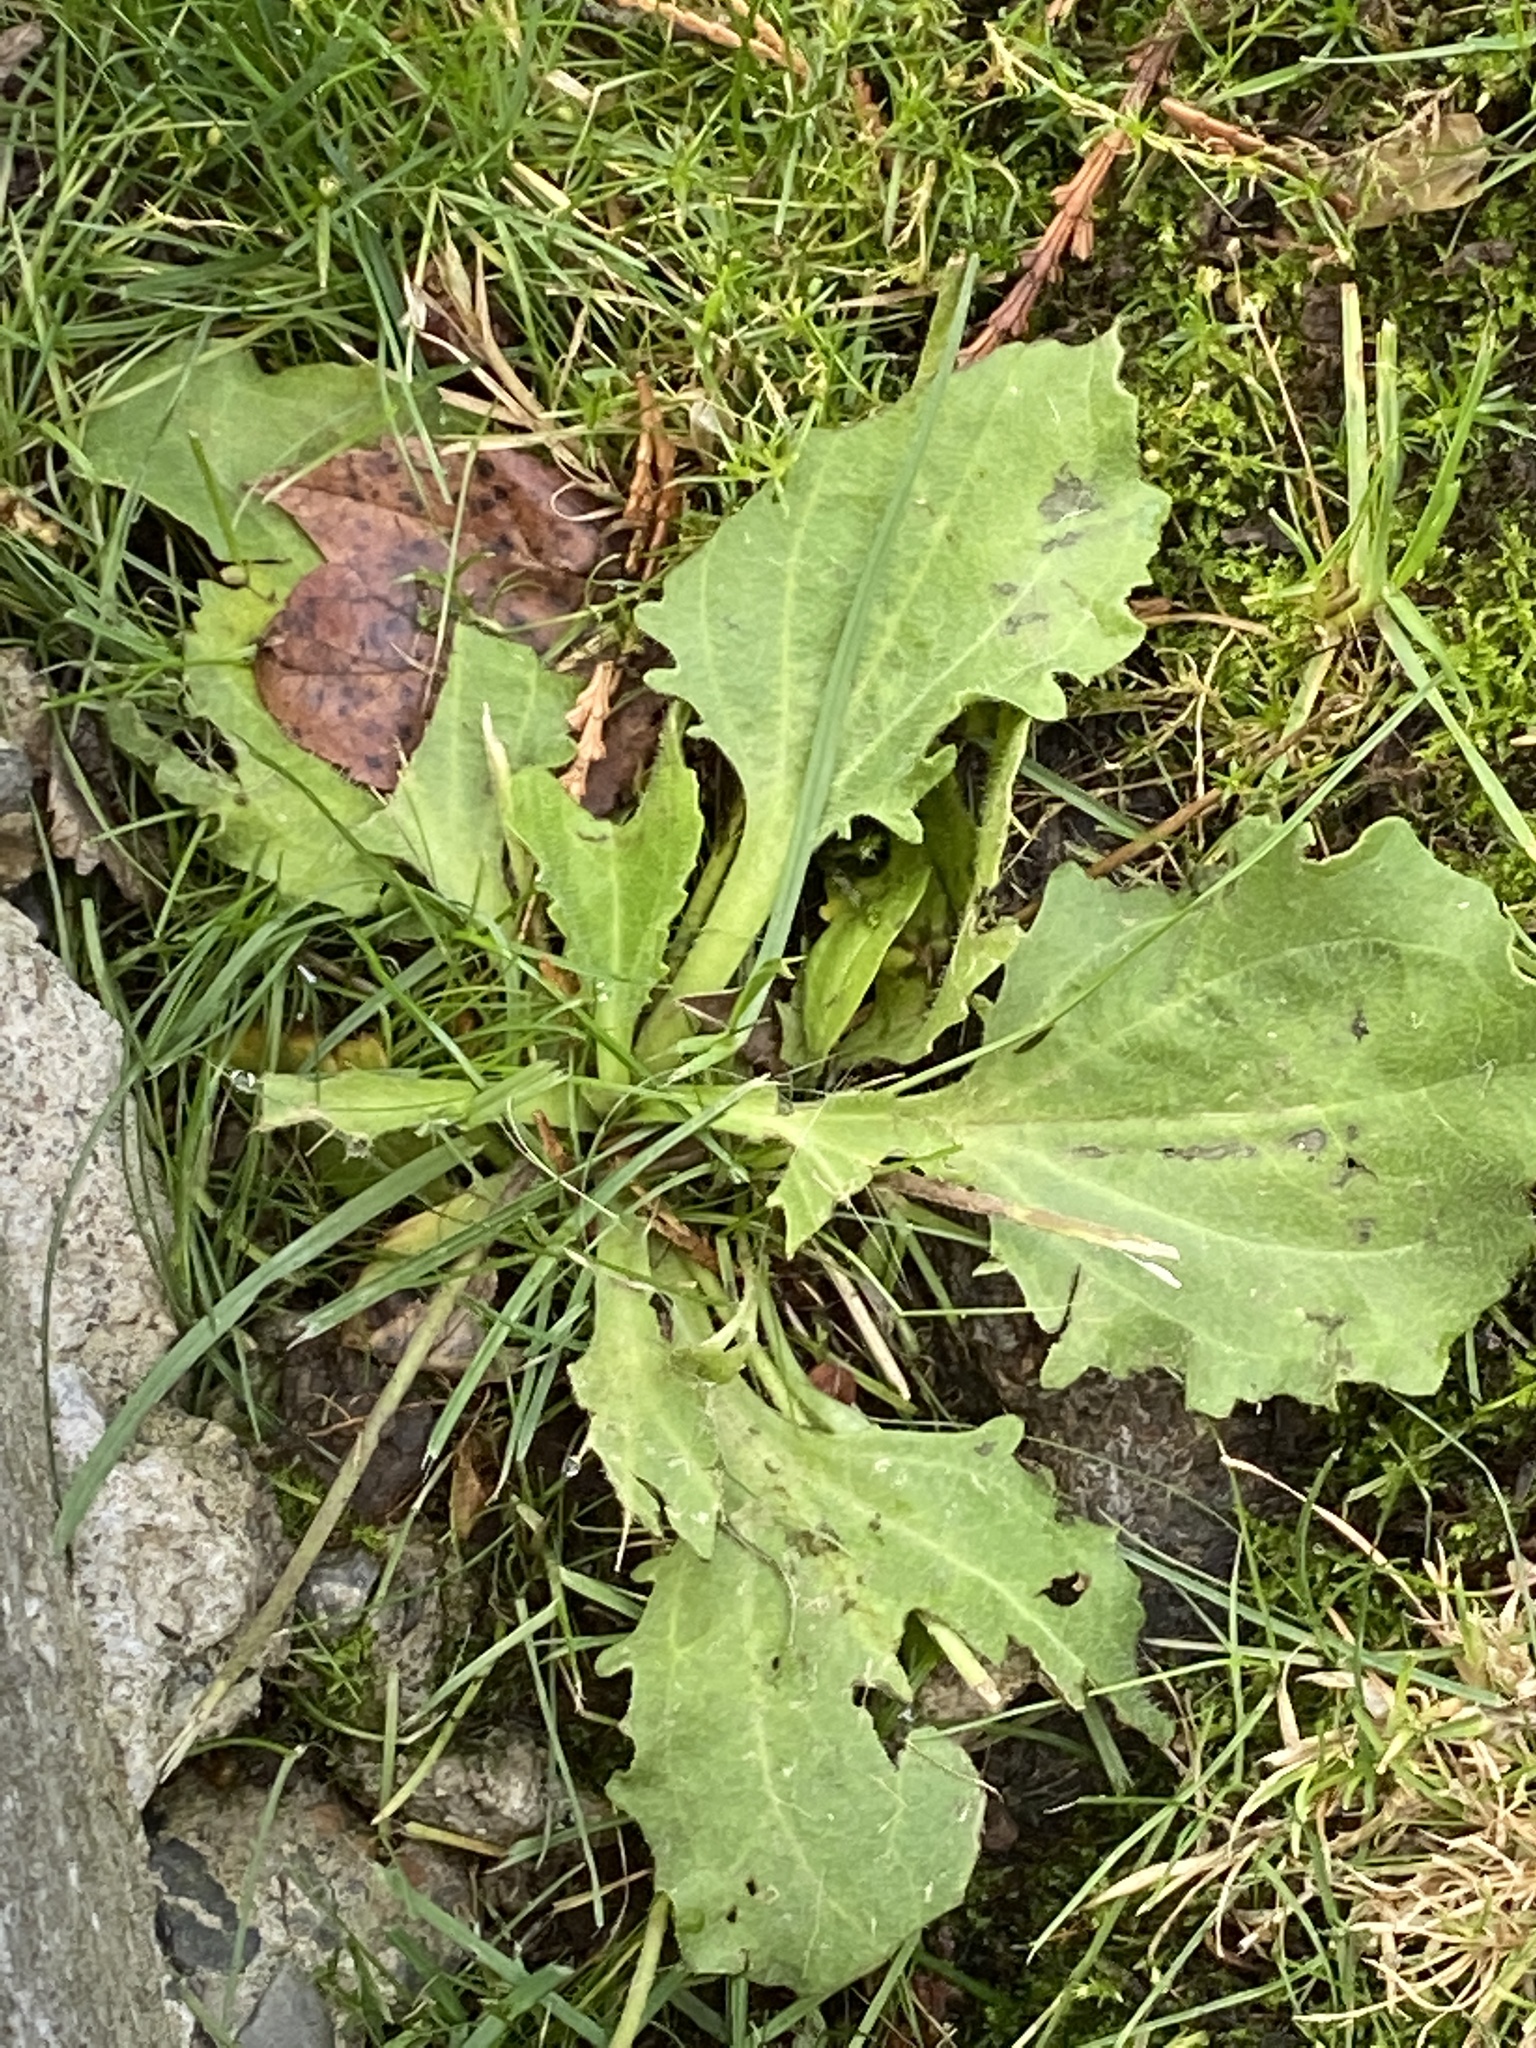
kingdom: Plantae
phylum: Tracheophyta
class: Magnoliopsida
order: Lamiales
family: Plantaginaceae
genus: Plantago
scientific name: Plantago major
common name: Common plantain
